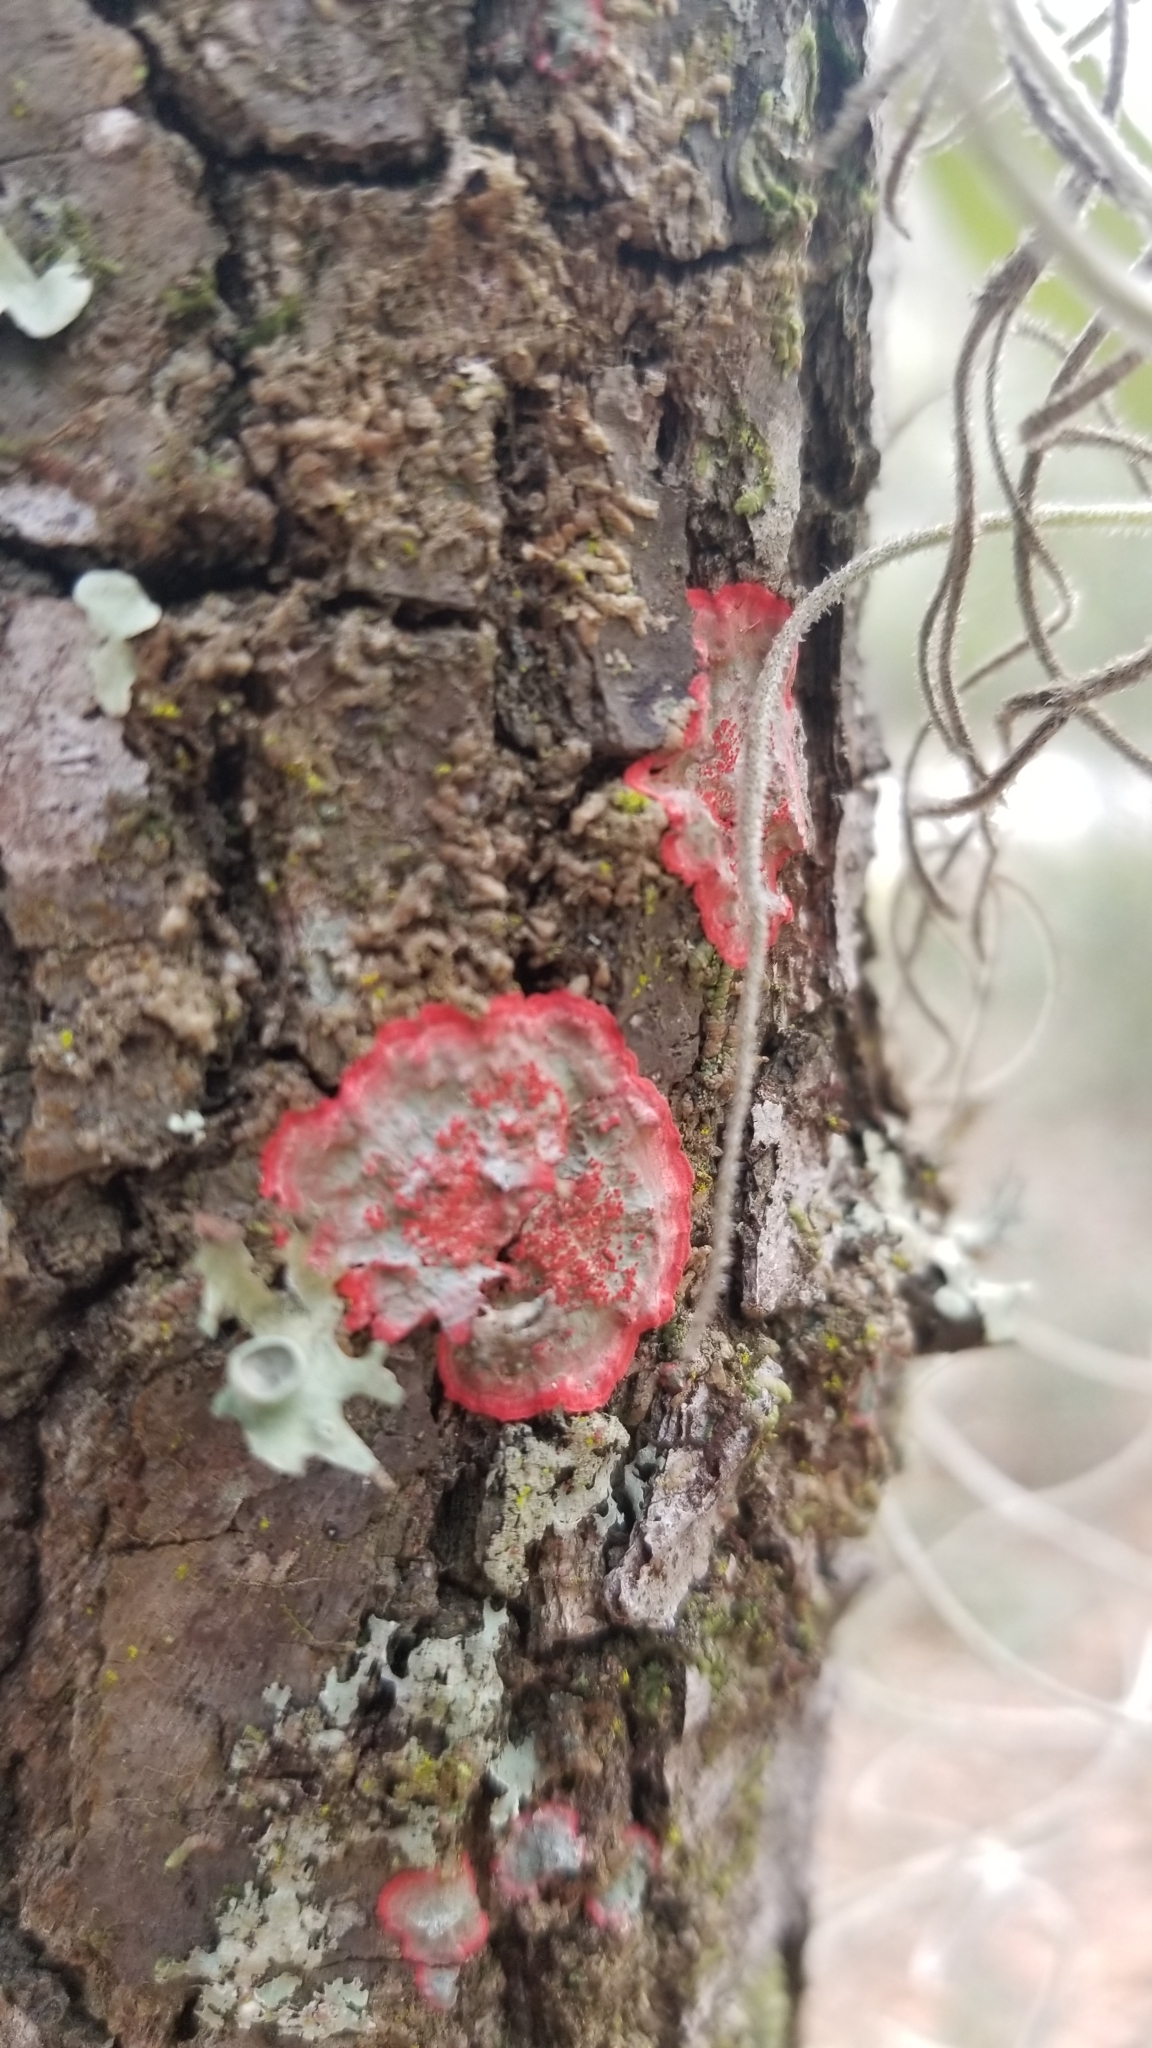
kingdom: Fungi
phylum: Ascomycota
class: Arthoniomycetes
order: Arthoniales
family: Arthoniaceae
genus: Herpothallon
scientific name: Herpothallon rubrocinctum
